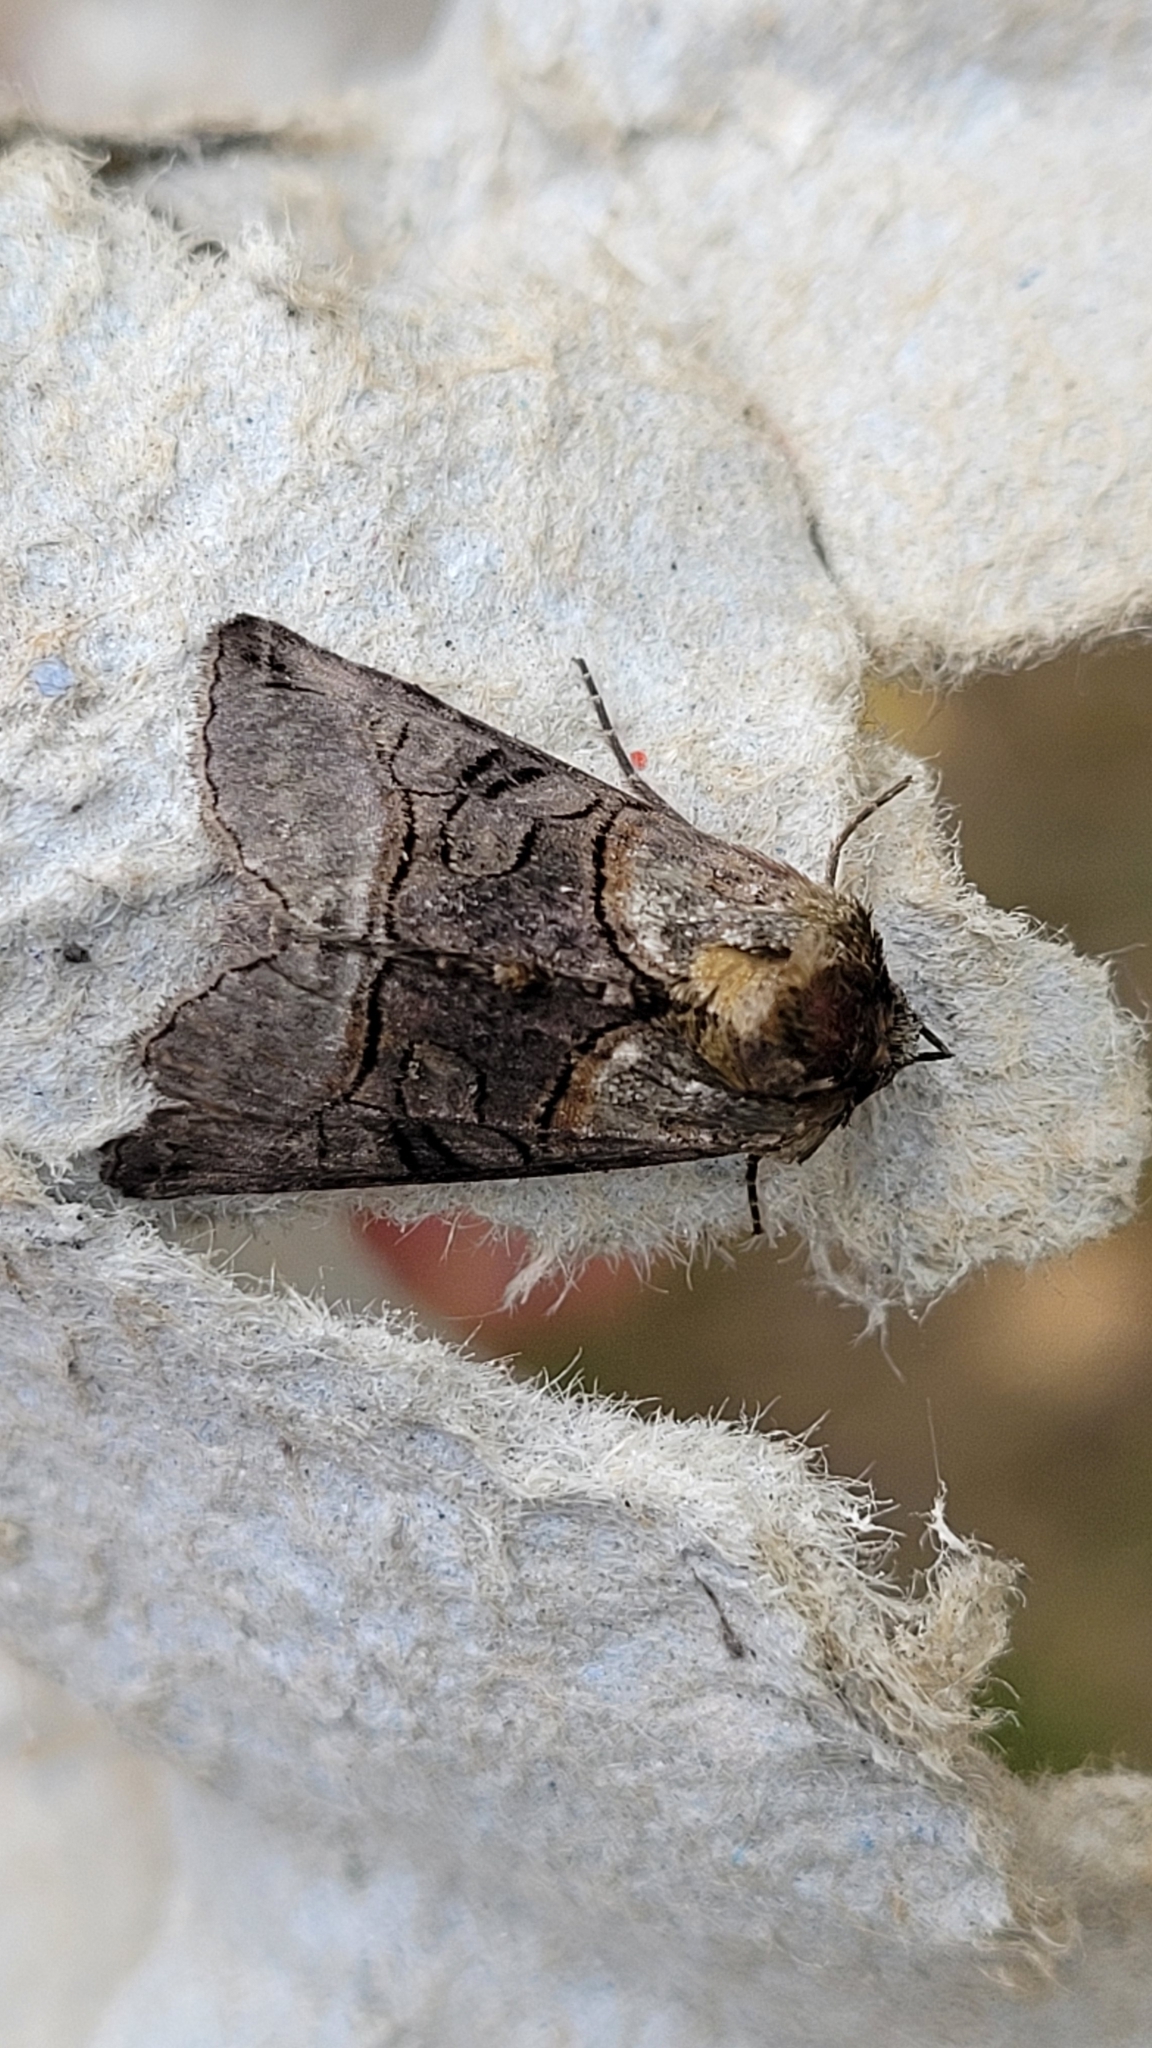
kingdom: Animalia
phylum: Arthropoda
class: Insecta
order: Lepidoptera
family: Noctuidae
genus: Abrostola
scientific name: Abrostola tripartita
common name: Spectacle
